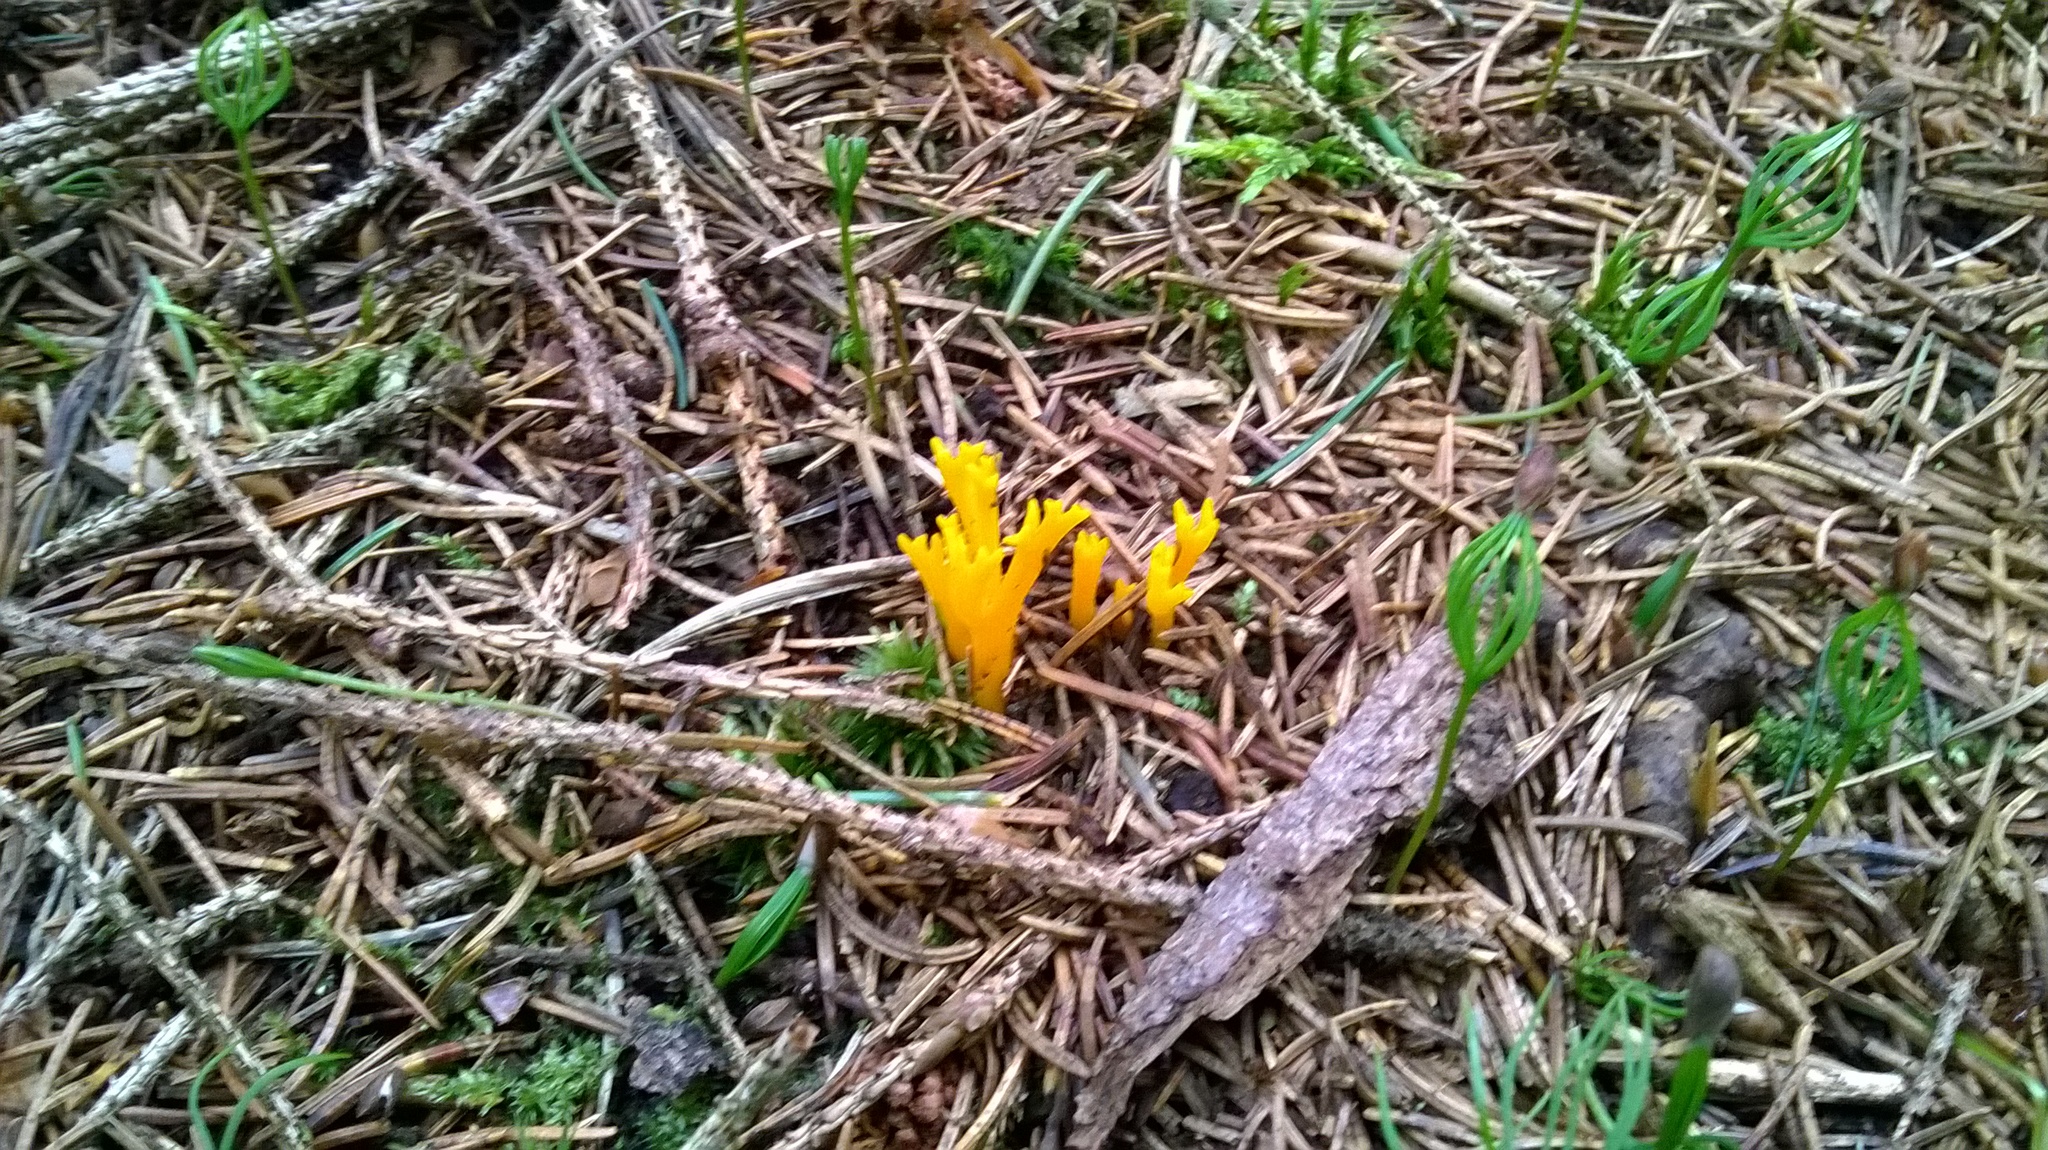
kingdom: Fungi
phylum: Basidiomycota
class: Dacrymycetes
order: Dacrymycetales
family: Dacrymycetaceae
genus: Calocera
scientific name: Calocera viscosa
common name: Yellow stagshorn
